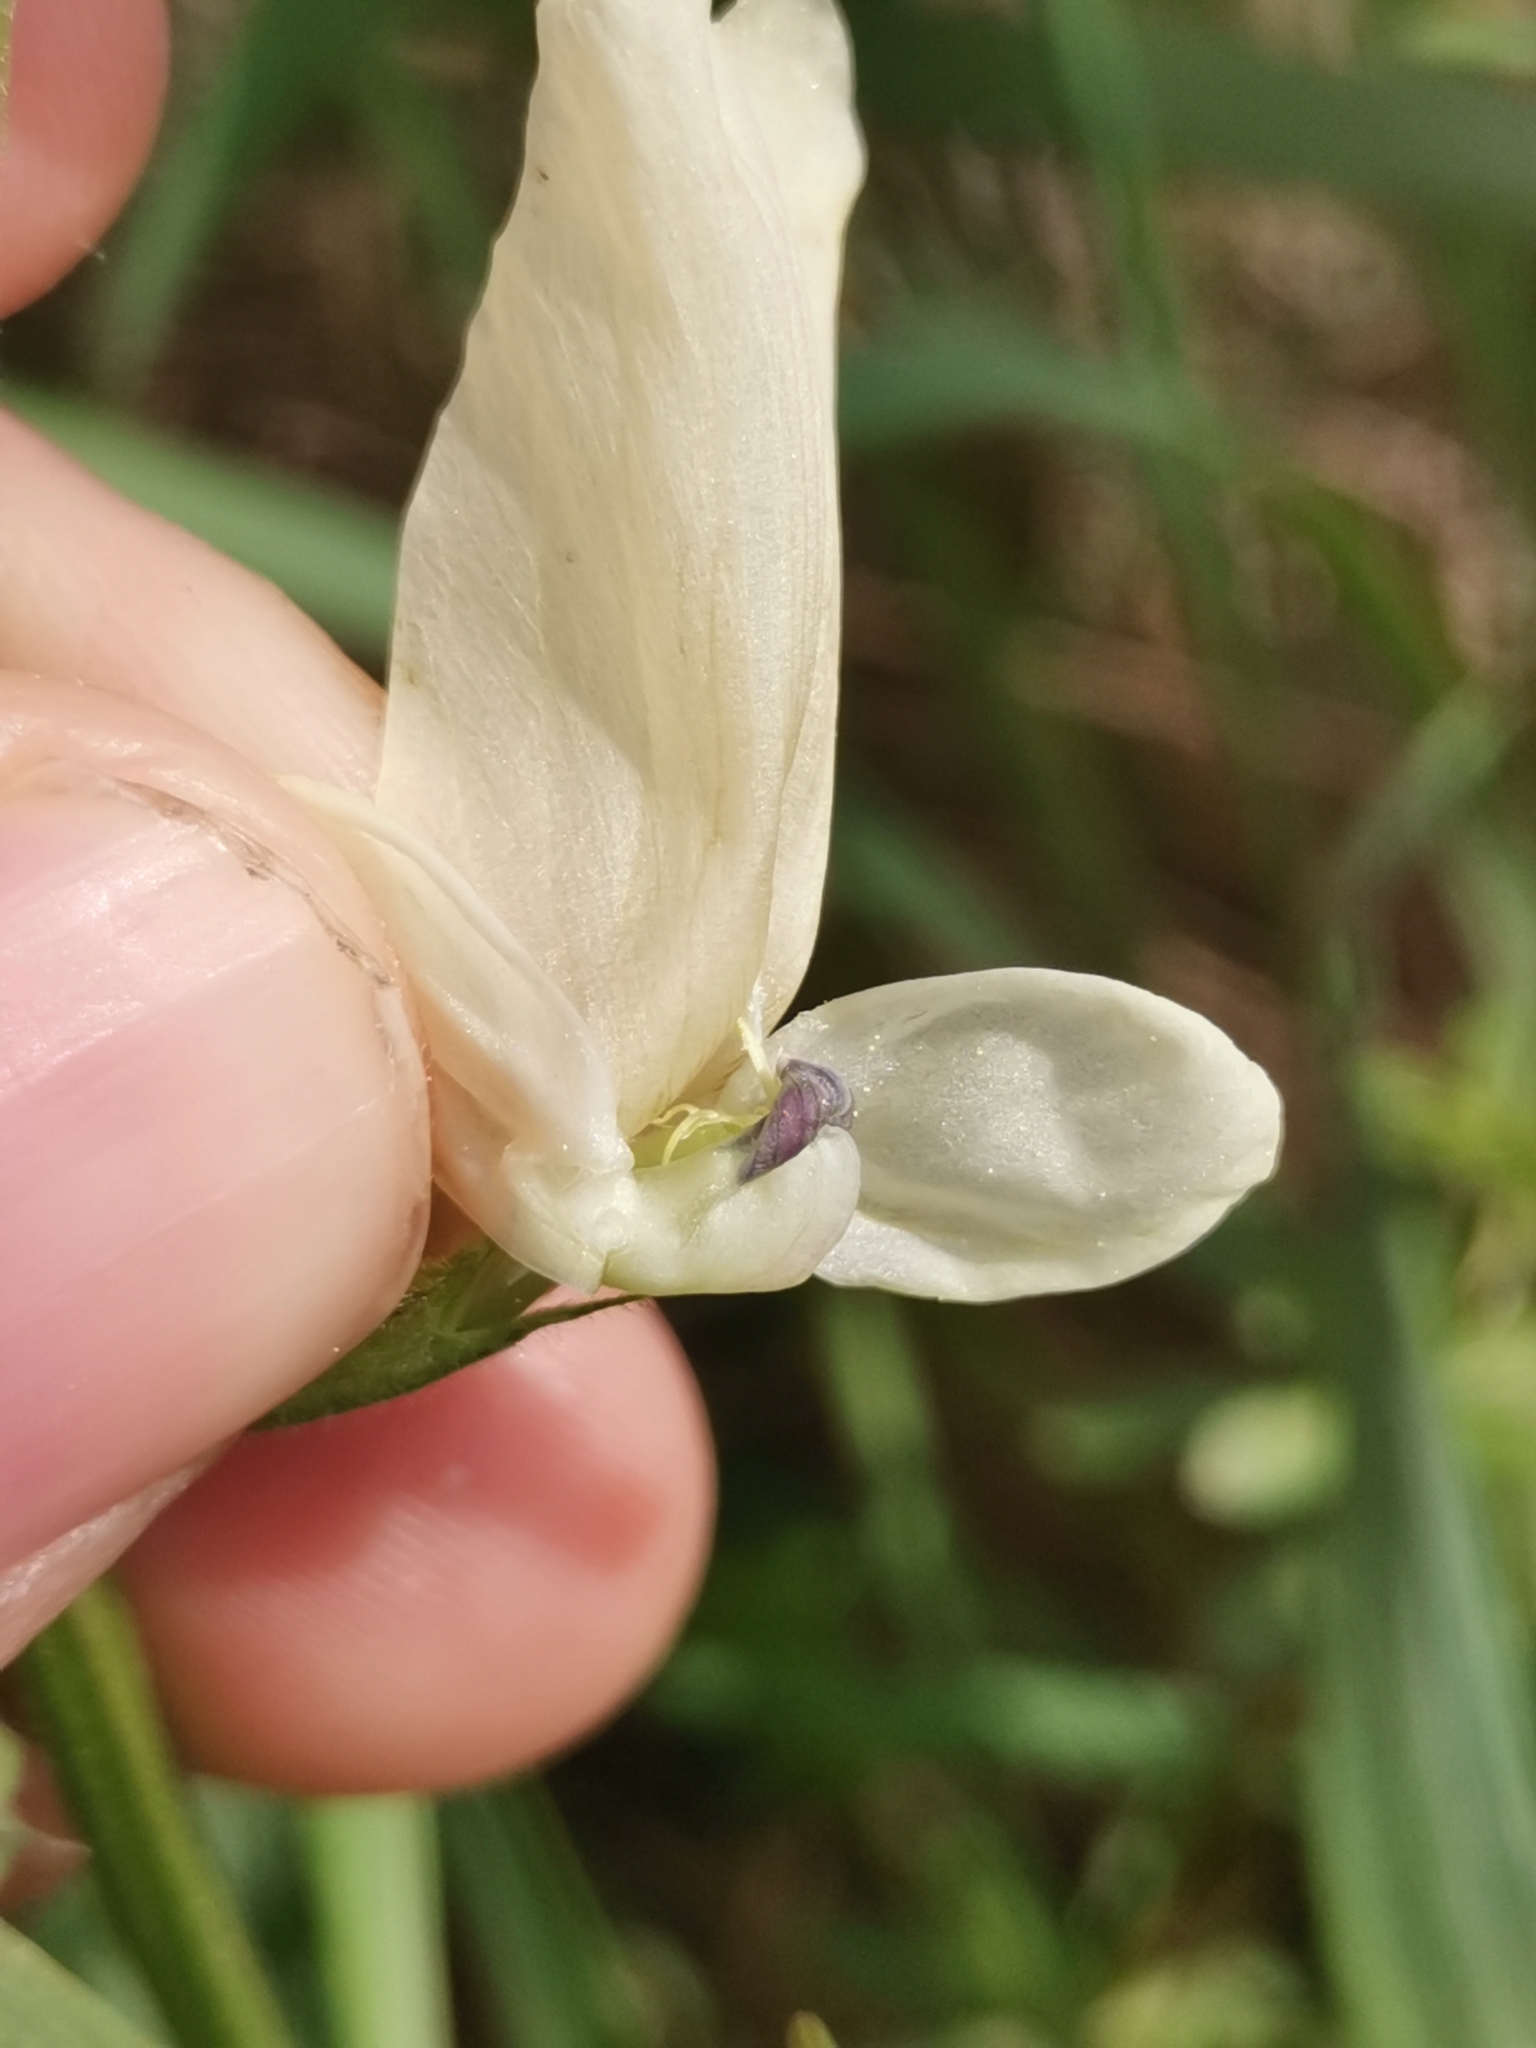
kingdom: Plantae
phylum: Tracheophyta
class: Magnoliopsida
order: Fabales
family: Fabaceae
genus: Vicia
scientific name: Vicia grandiflora
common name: Large yellow vetch
